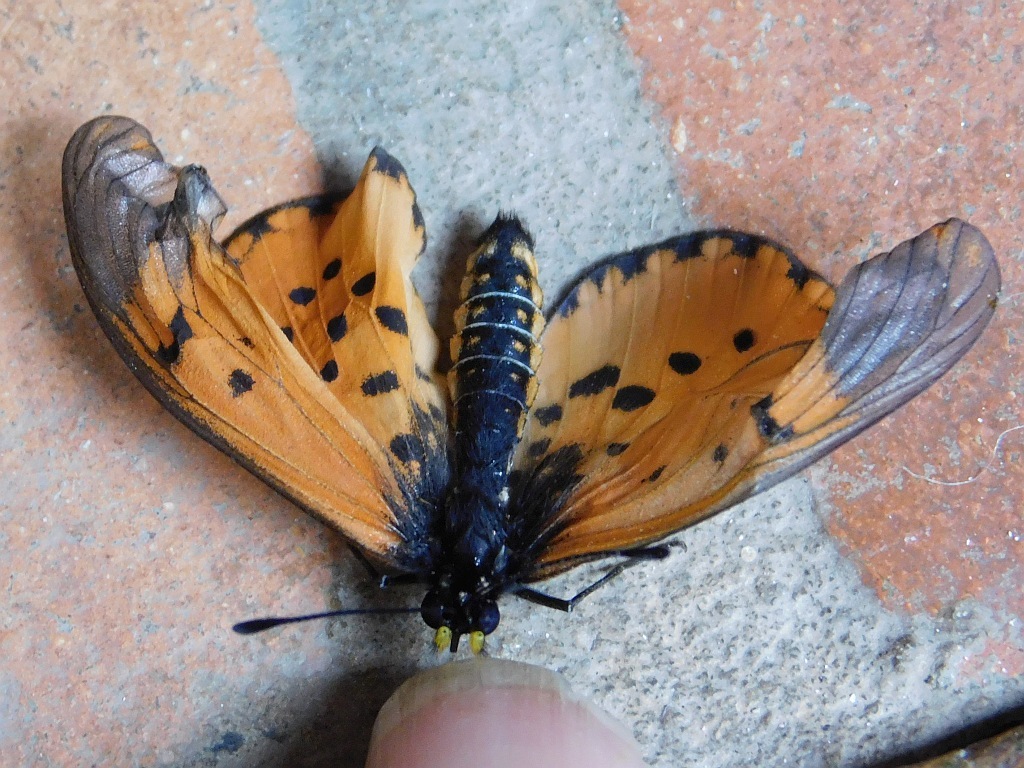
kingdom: Animalia
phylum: Arthropoda
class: Insecta
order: Lepidoptera
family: Nymphalidae
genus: Acraea
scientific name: Acraea horta
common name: Garden acraea
